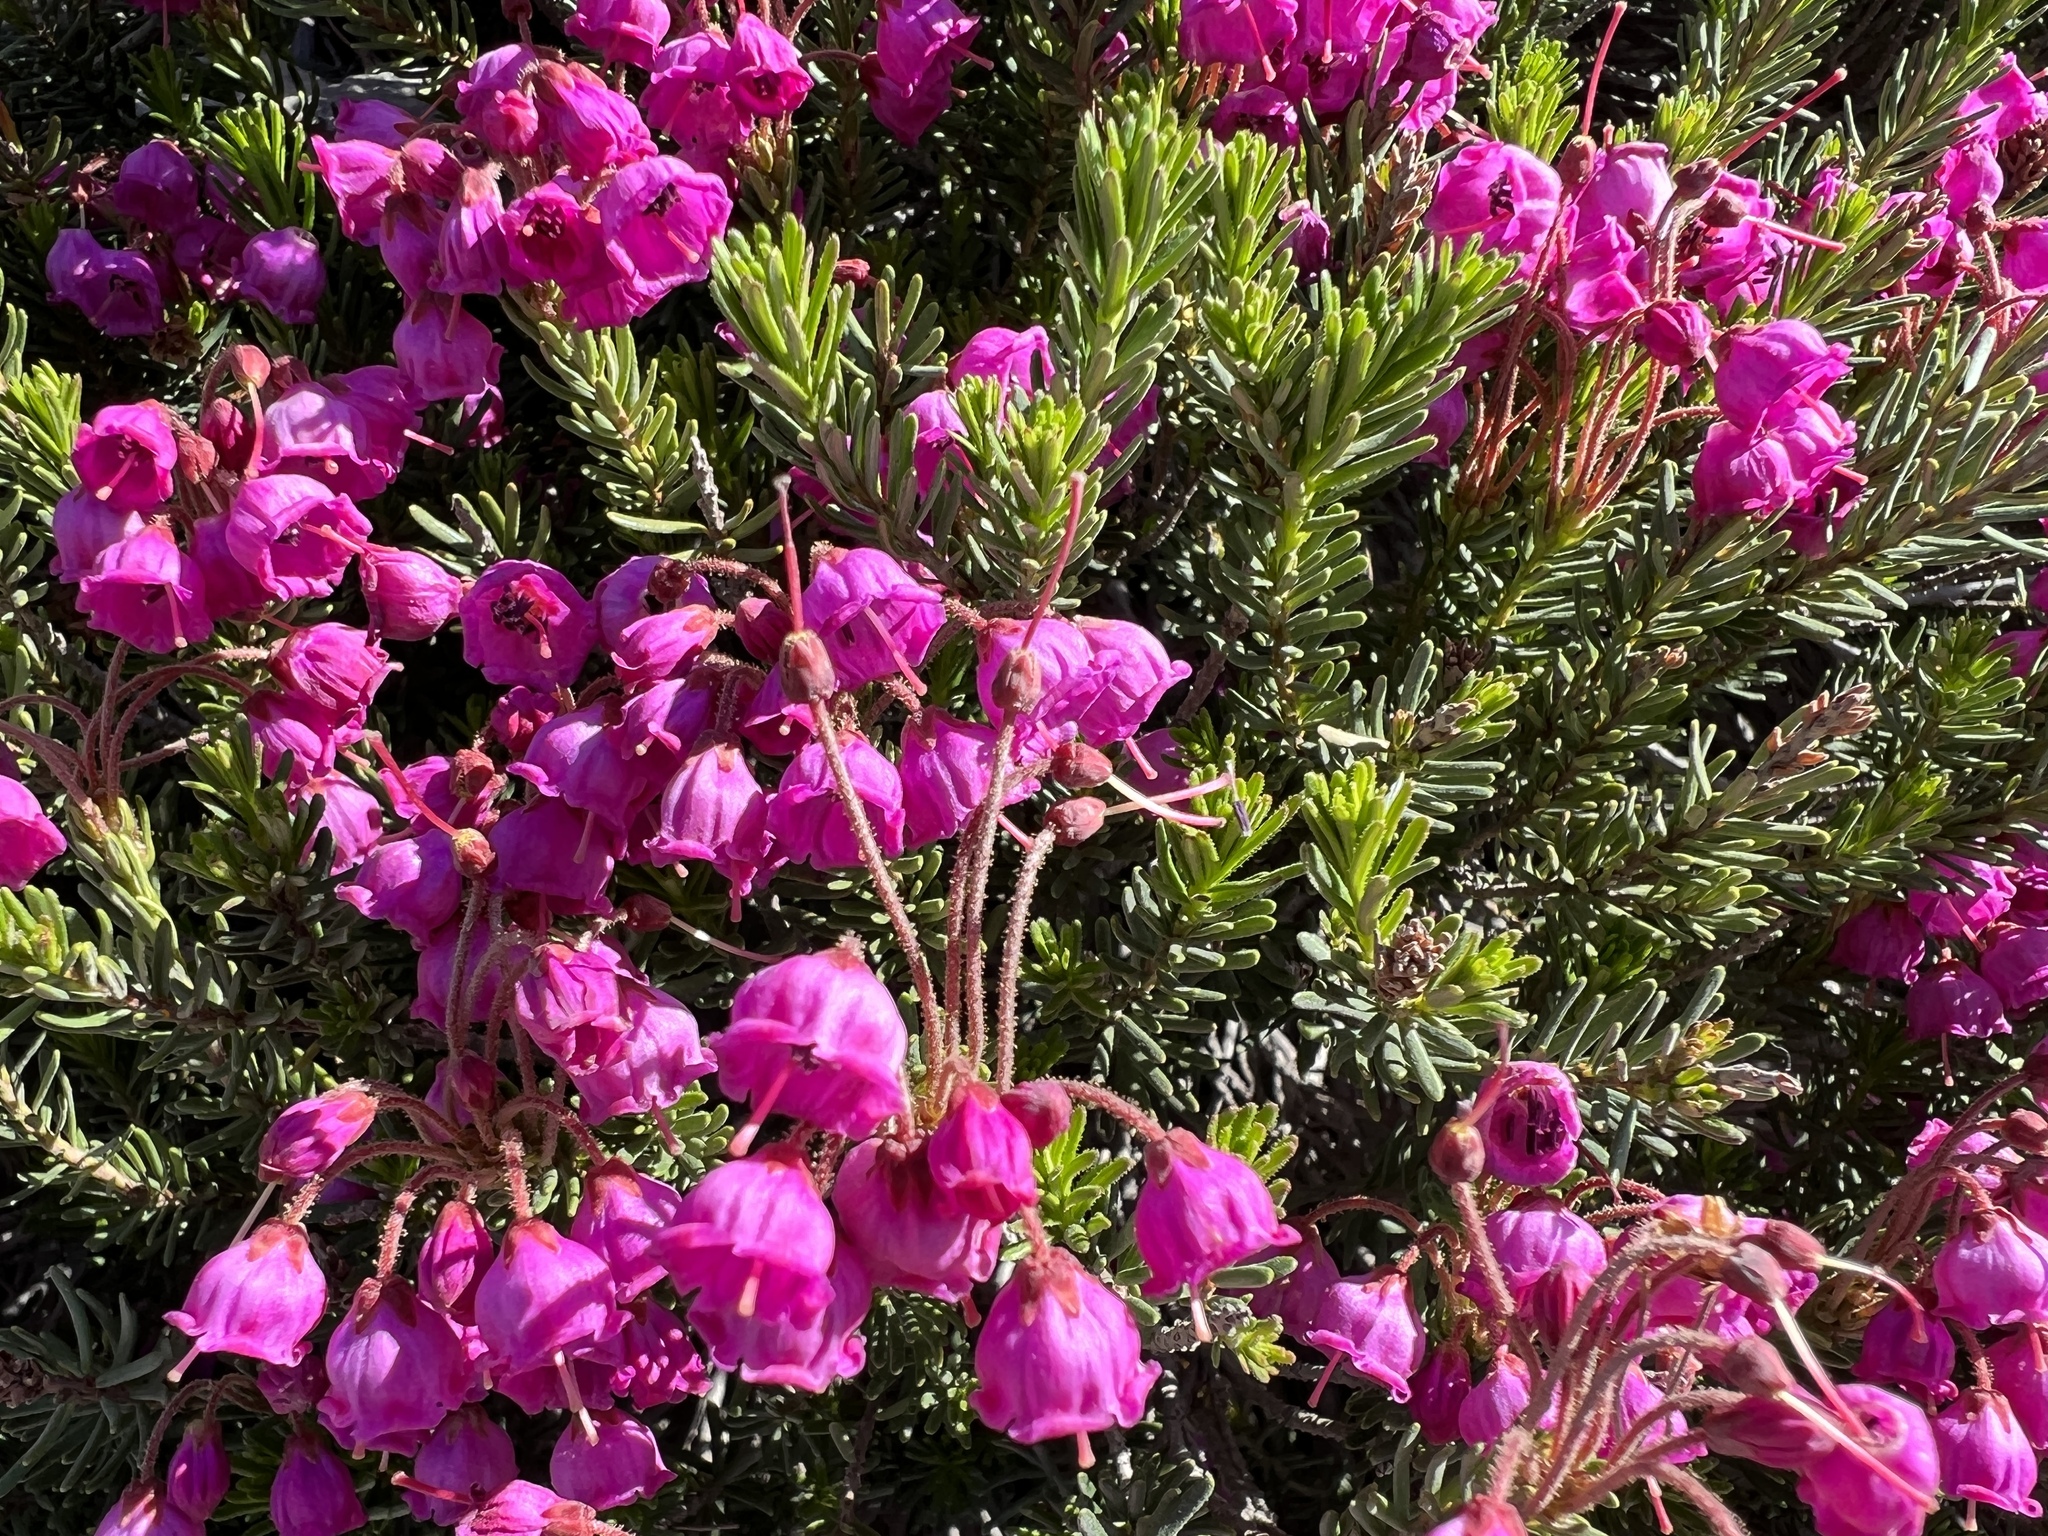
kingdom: Plantae
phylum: Tracheophyta
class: Magnoliopsida
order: Ericales
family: Ericaceae
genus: Phyllodoce
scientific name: Phyllodoce empetriformis
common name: Pink mountain heather
